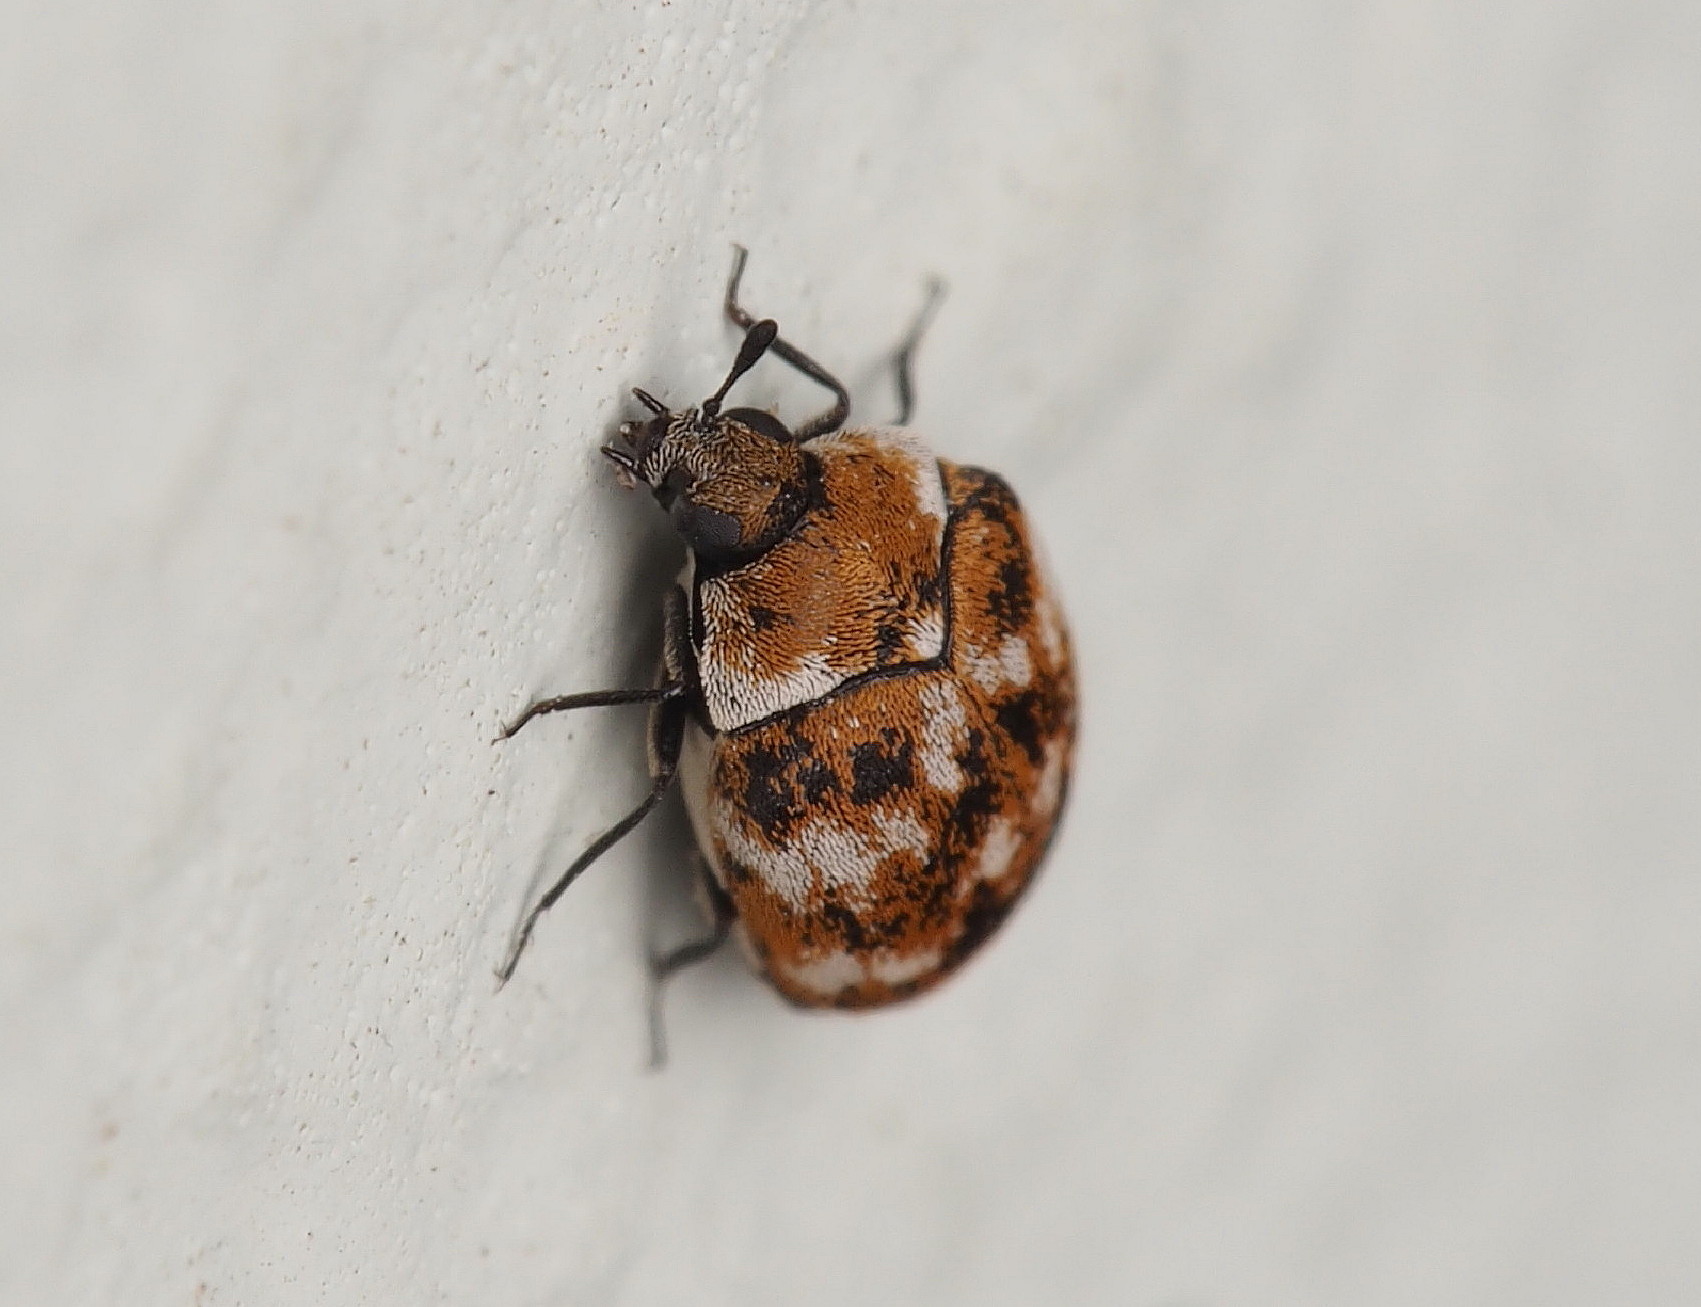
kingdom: Animalia
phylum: Arthropoda
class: Insecta
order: Coleoptera
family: Dermestidae
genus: Anthrenus
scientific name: Anthrenus verbasci
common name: Varied carpet beetle
